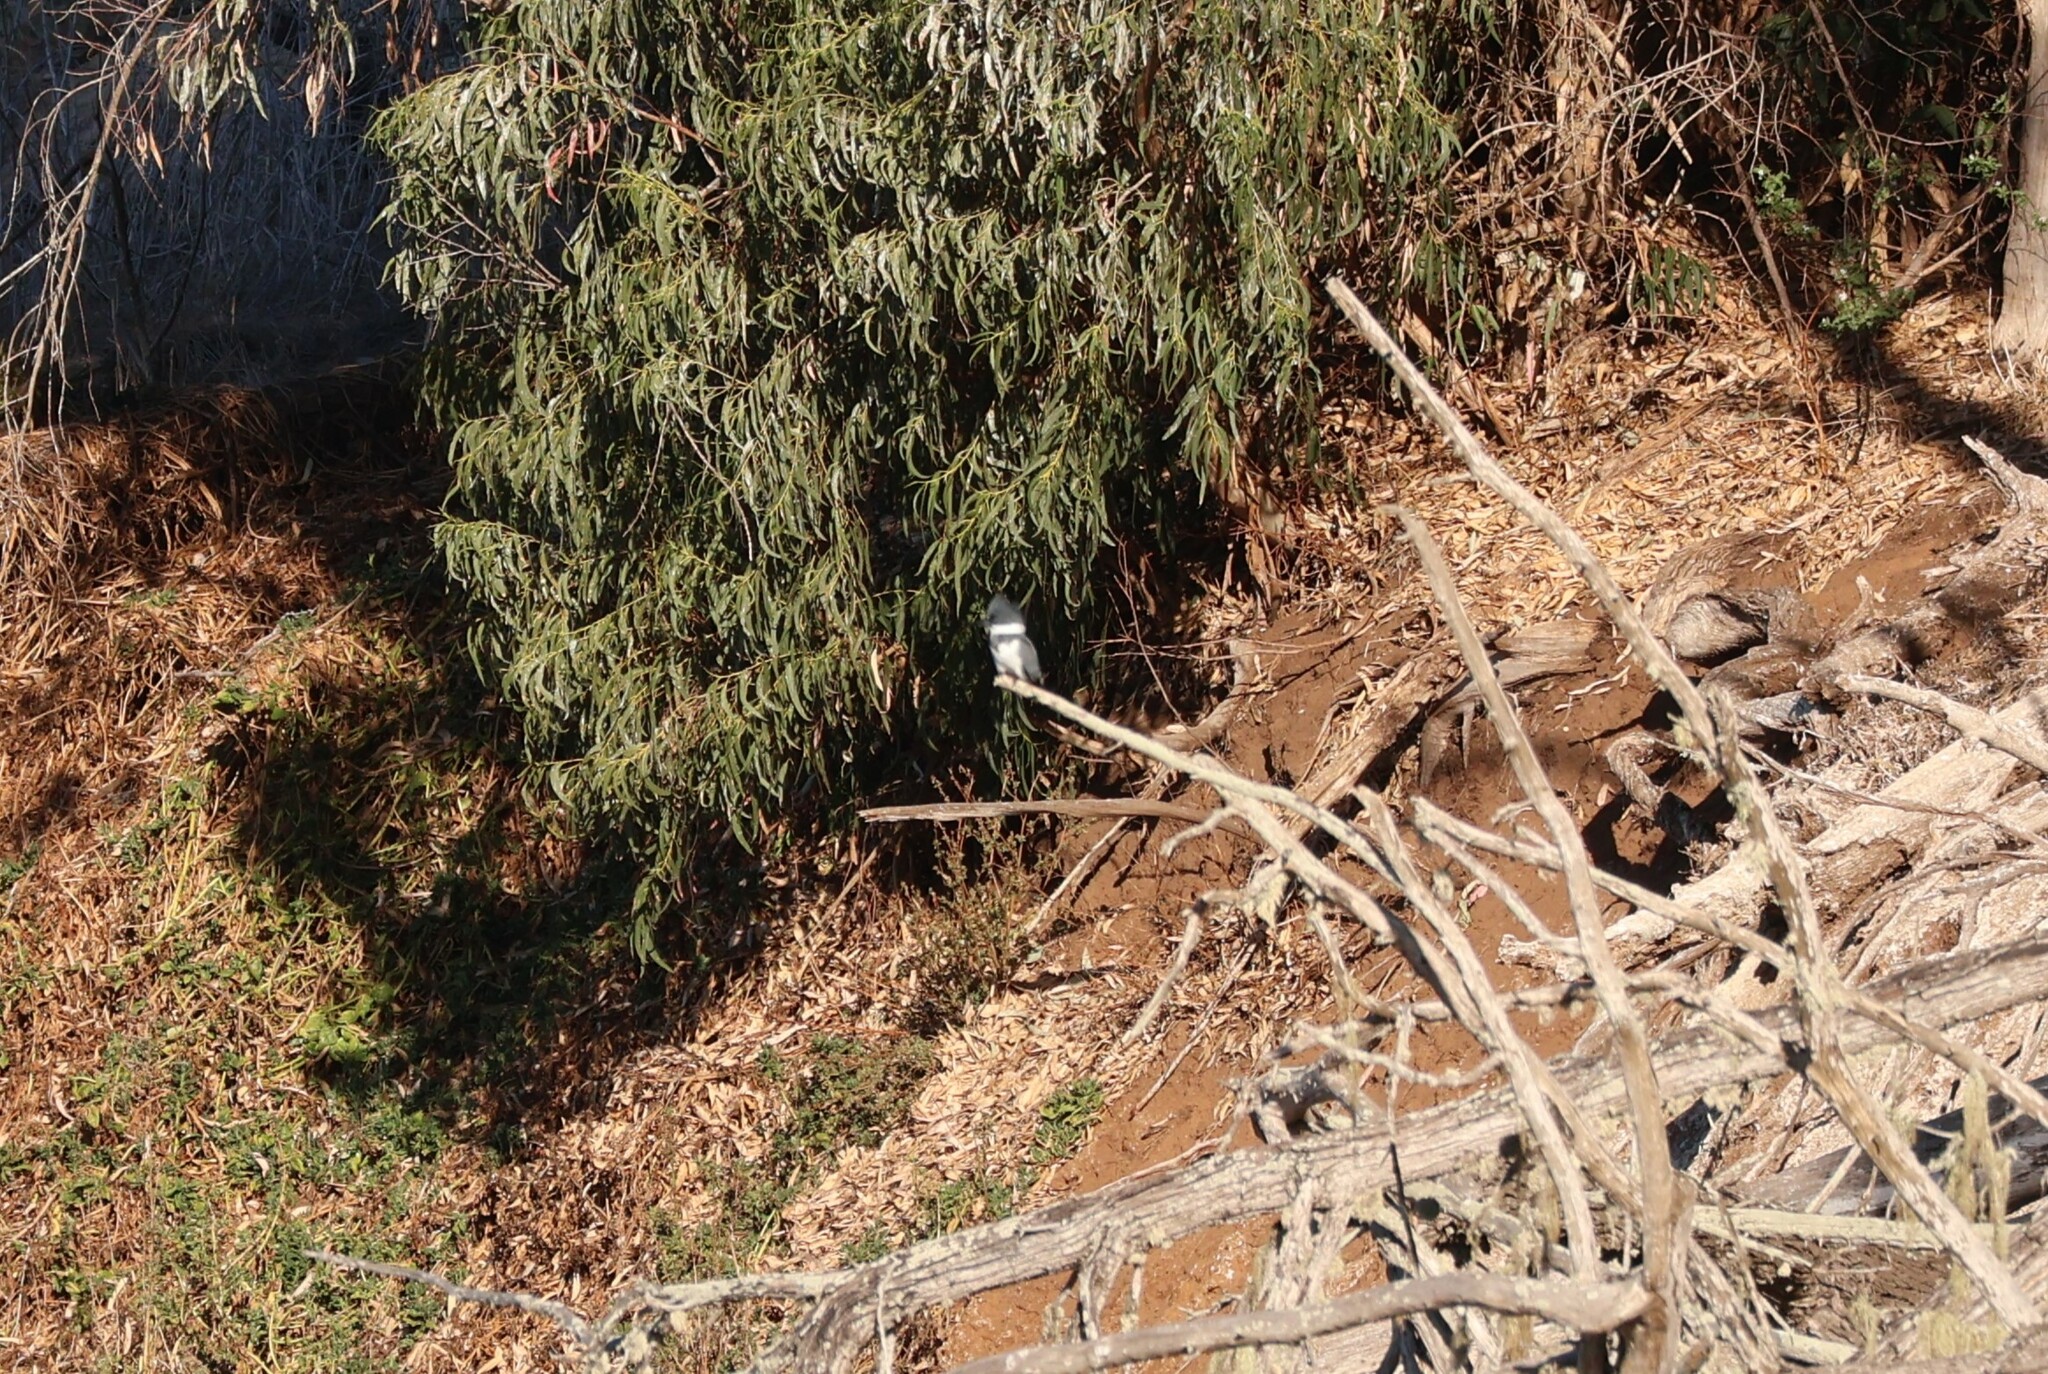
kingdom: Animalia
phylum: Chordata
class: Aves
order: Coraciiformes
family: Alcedinidae
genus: Megaceryle
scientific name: Megaceryle alcyon
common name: Belted kingfisher
